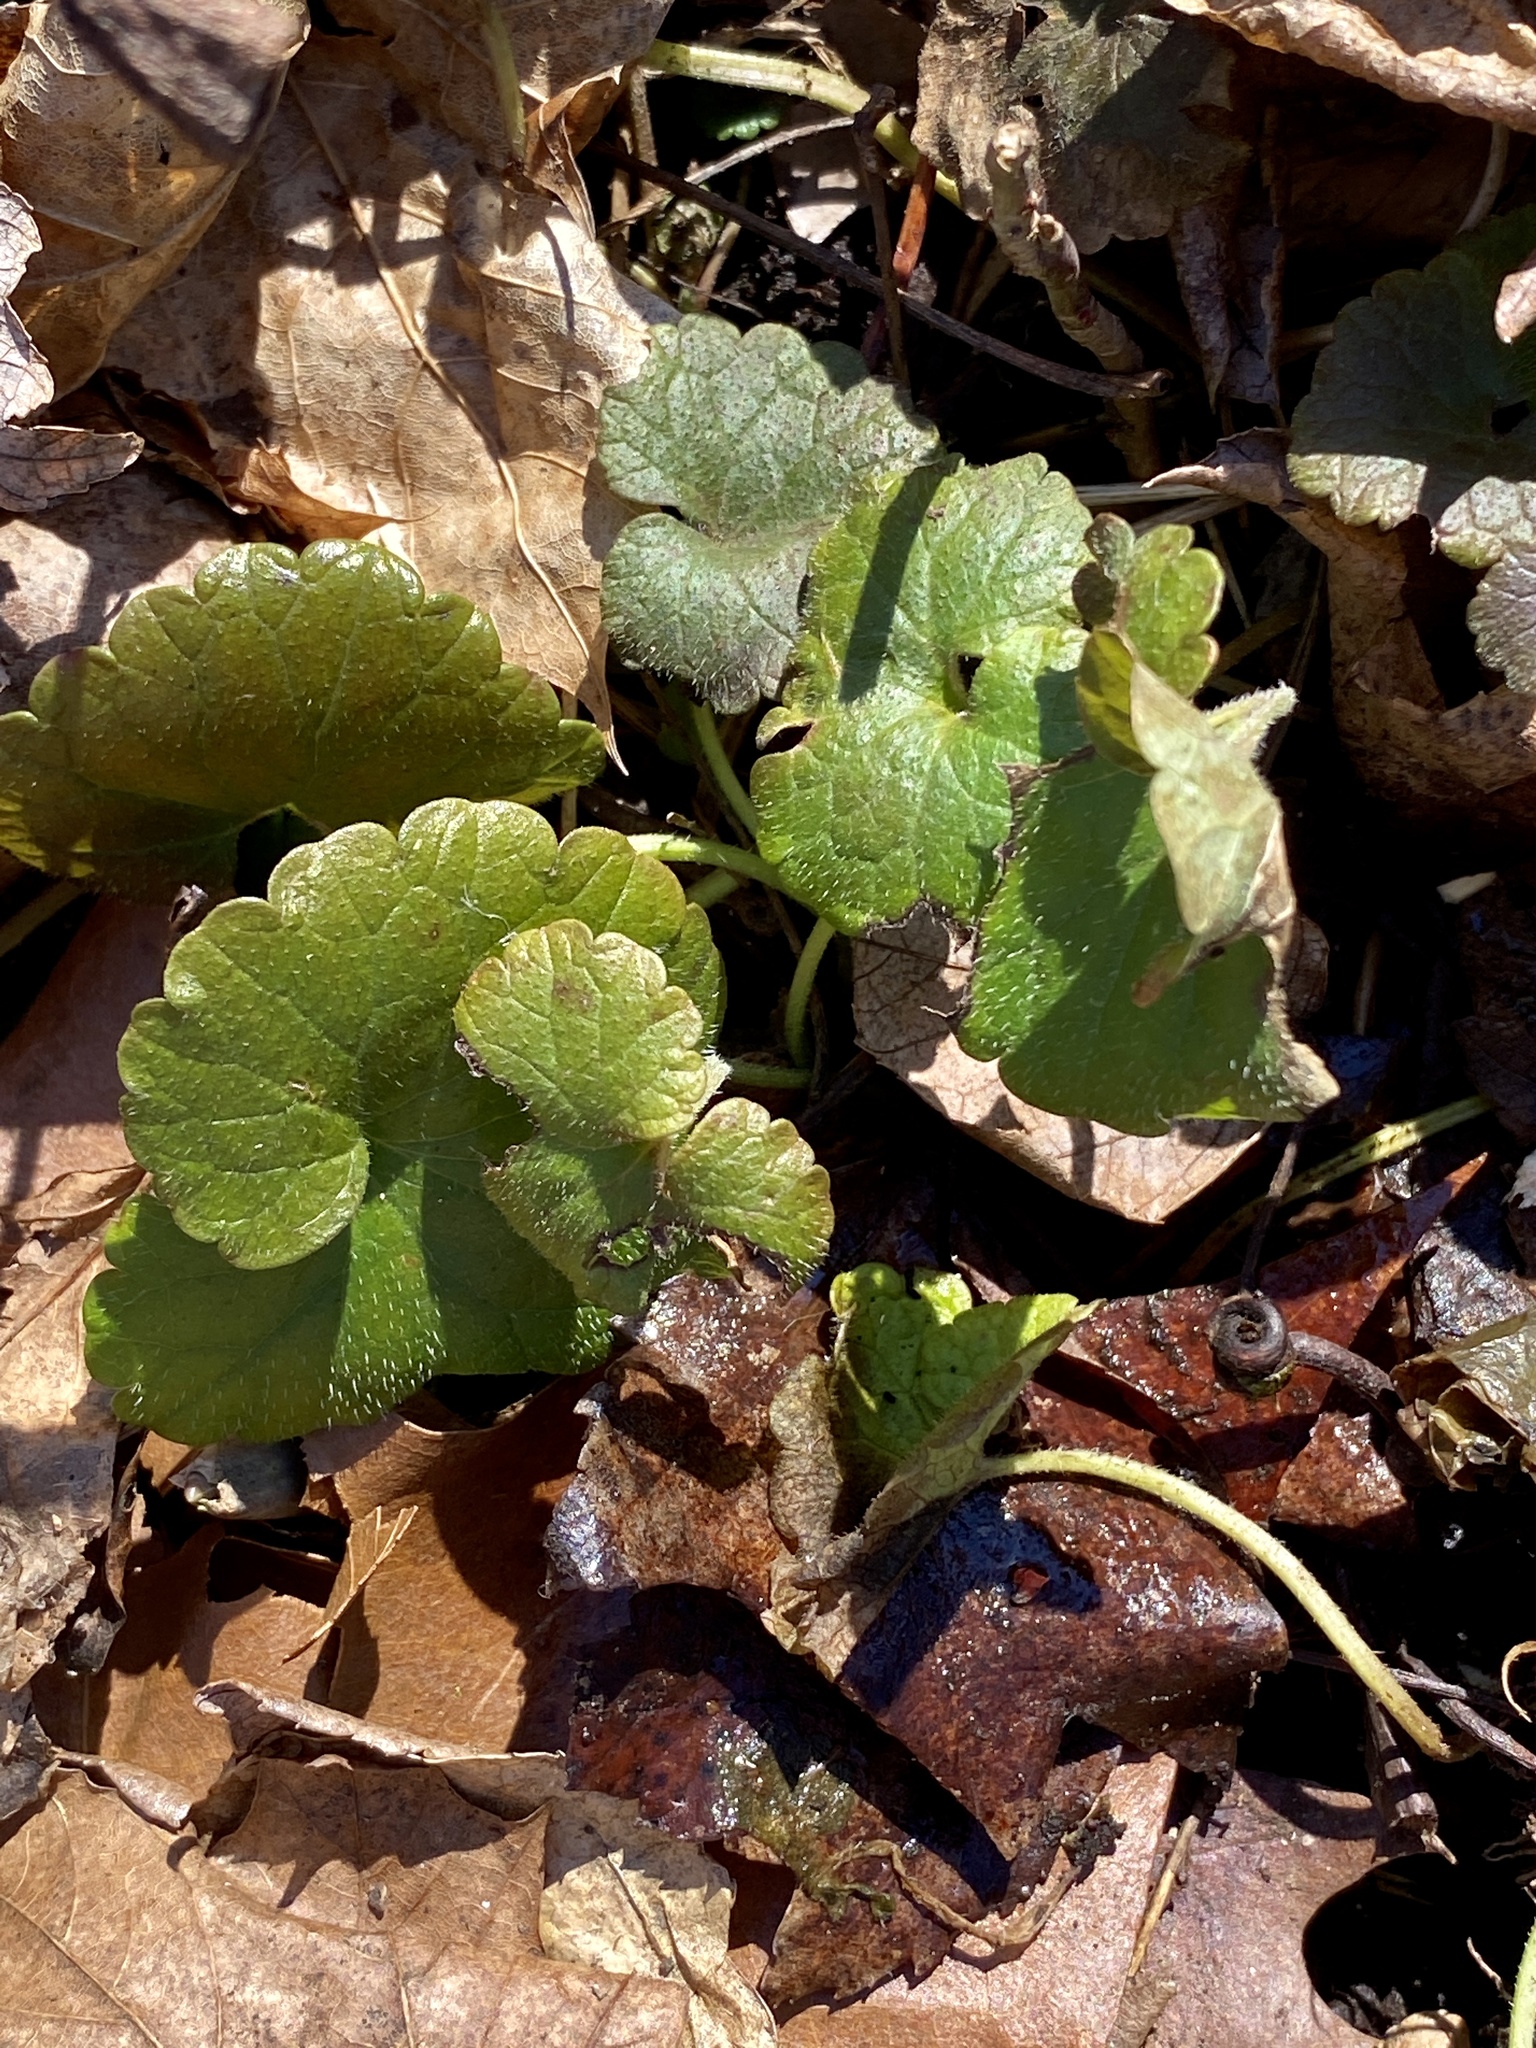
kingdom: Plantae
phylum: Tracheophyta
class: Magnoliopsida
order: Lamiales
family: Lamiaceae
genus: Glechoma
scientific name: Glechoma hederacea
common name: Ground ivy
